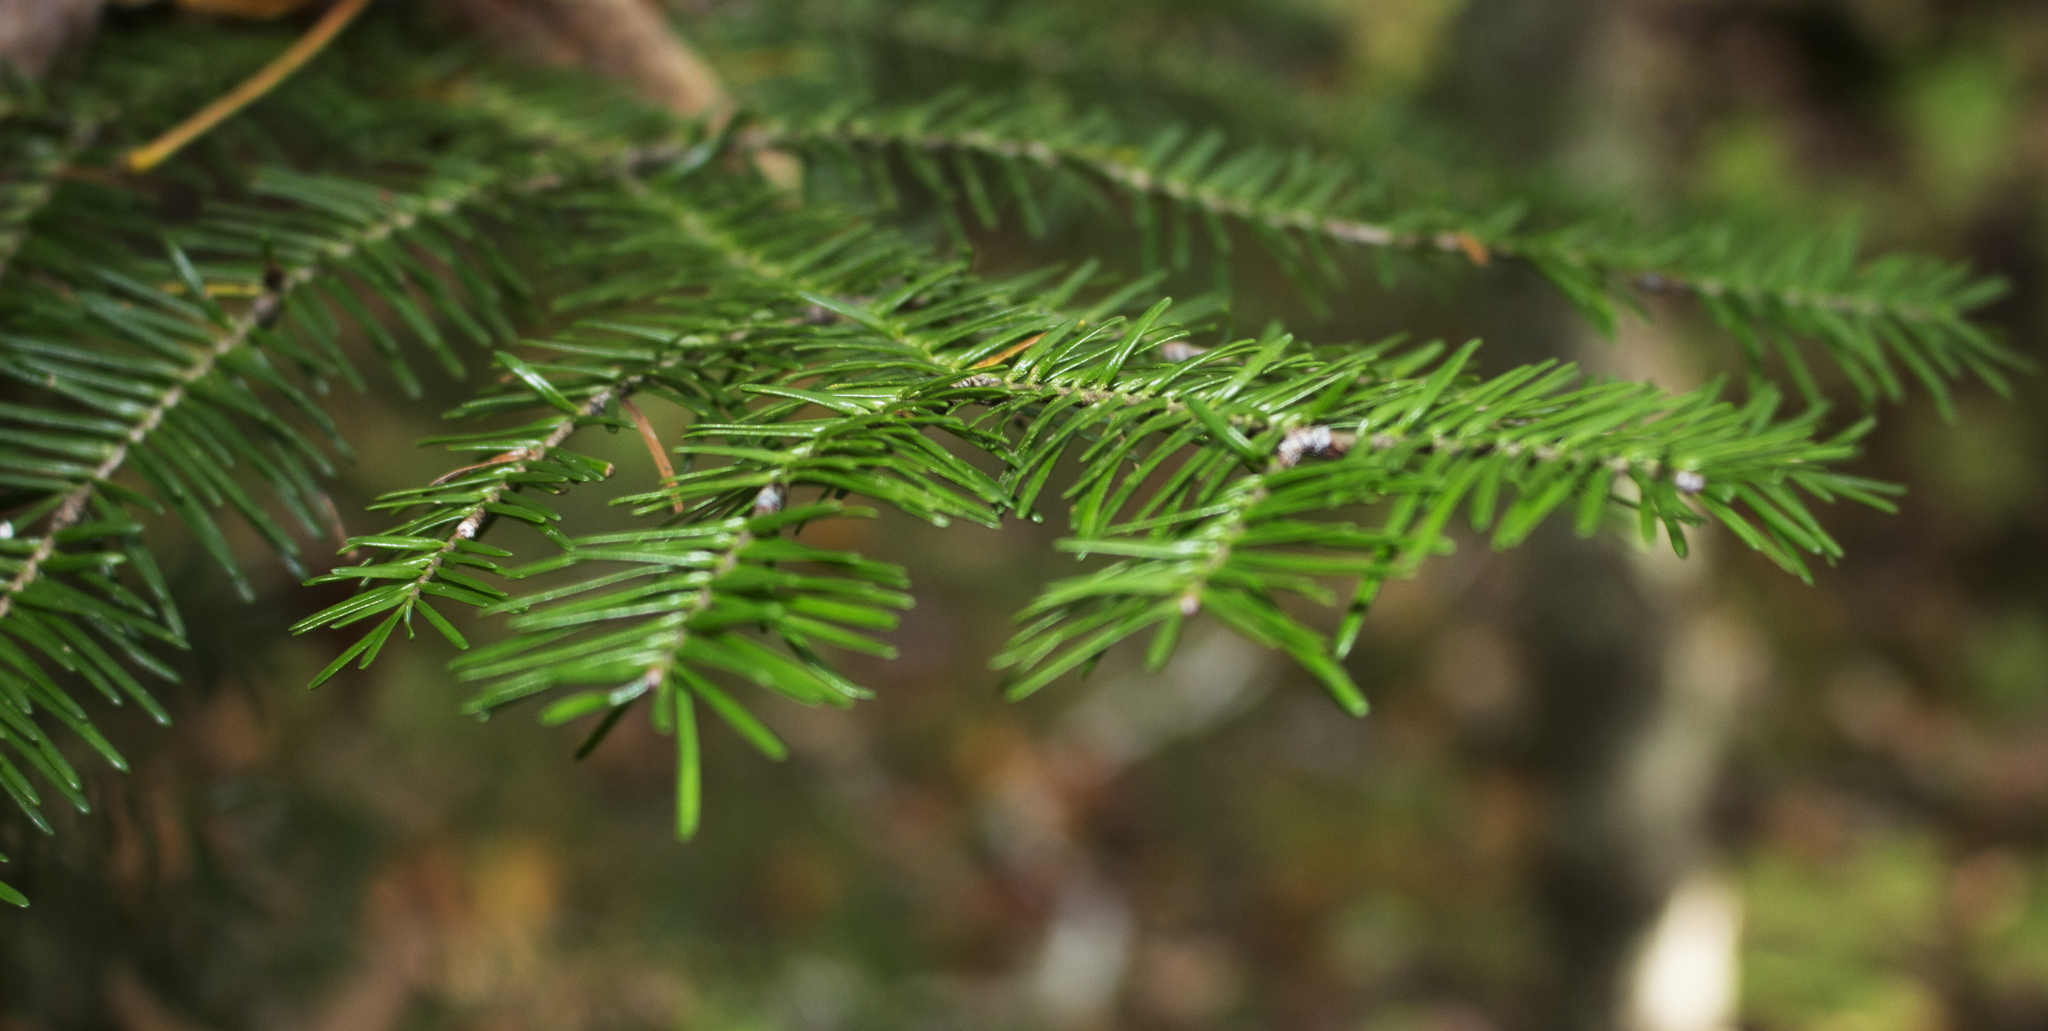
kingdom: Plantae
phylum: Tracheophyta
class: Pinopsida
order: Pinales
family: Pinaceae
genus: Abies
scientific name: Abies balsamea
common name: Balsam fir
